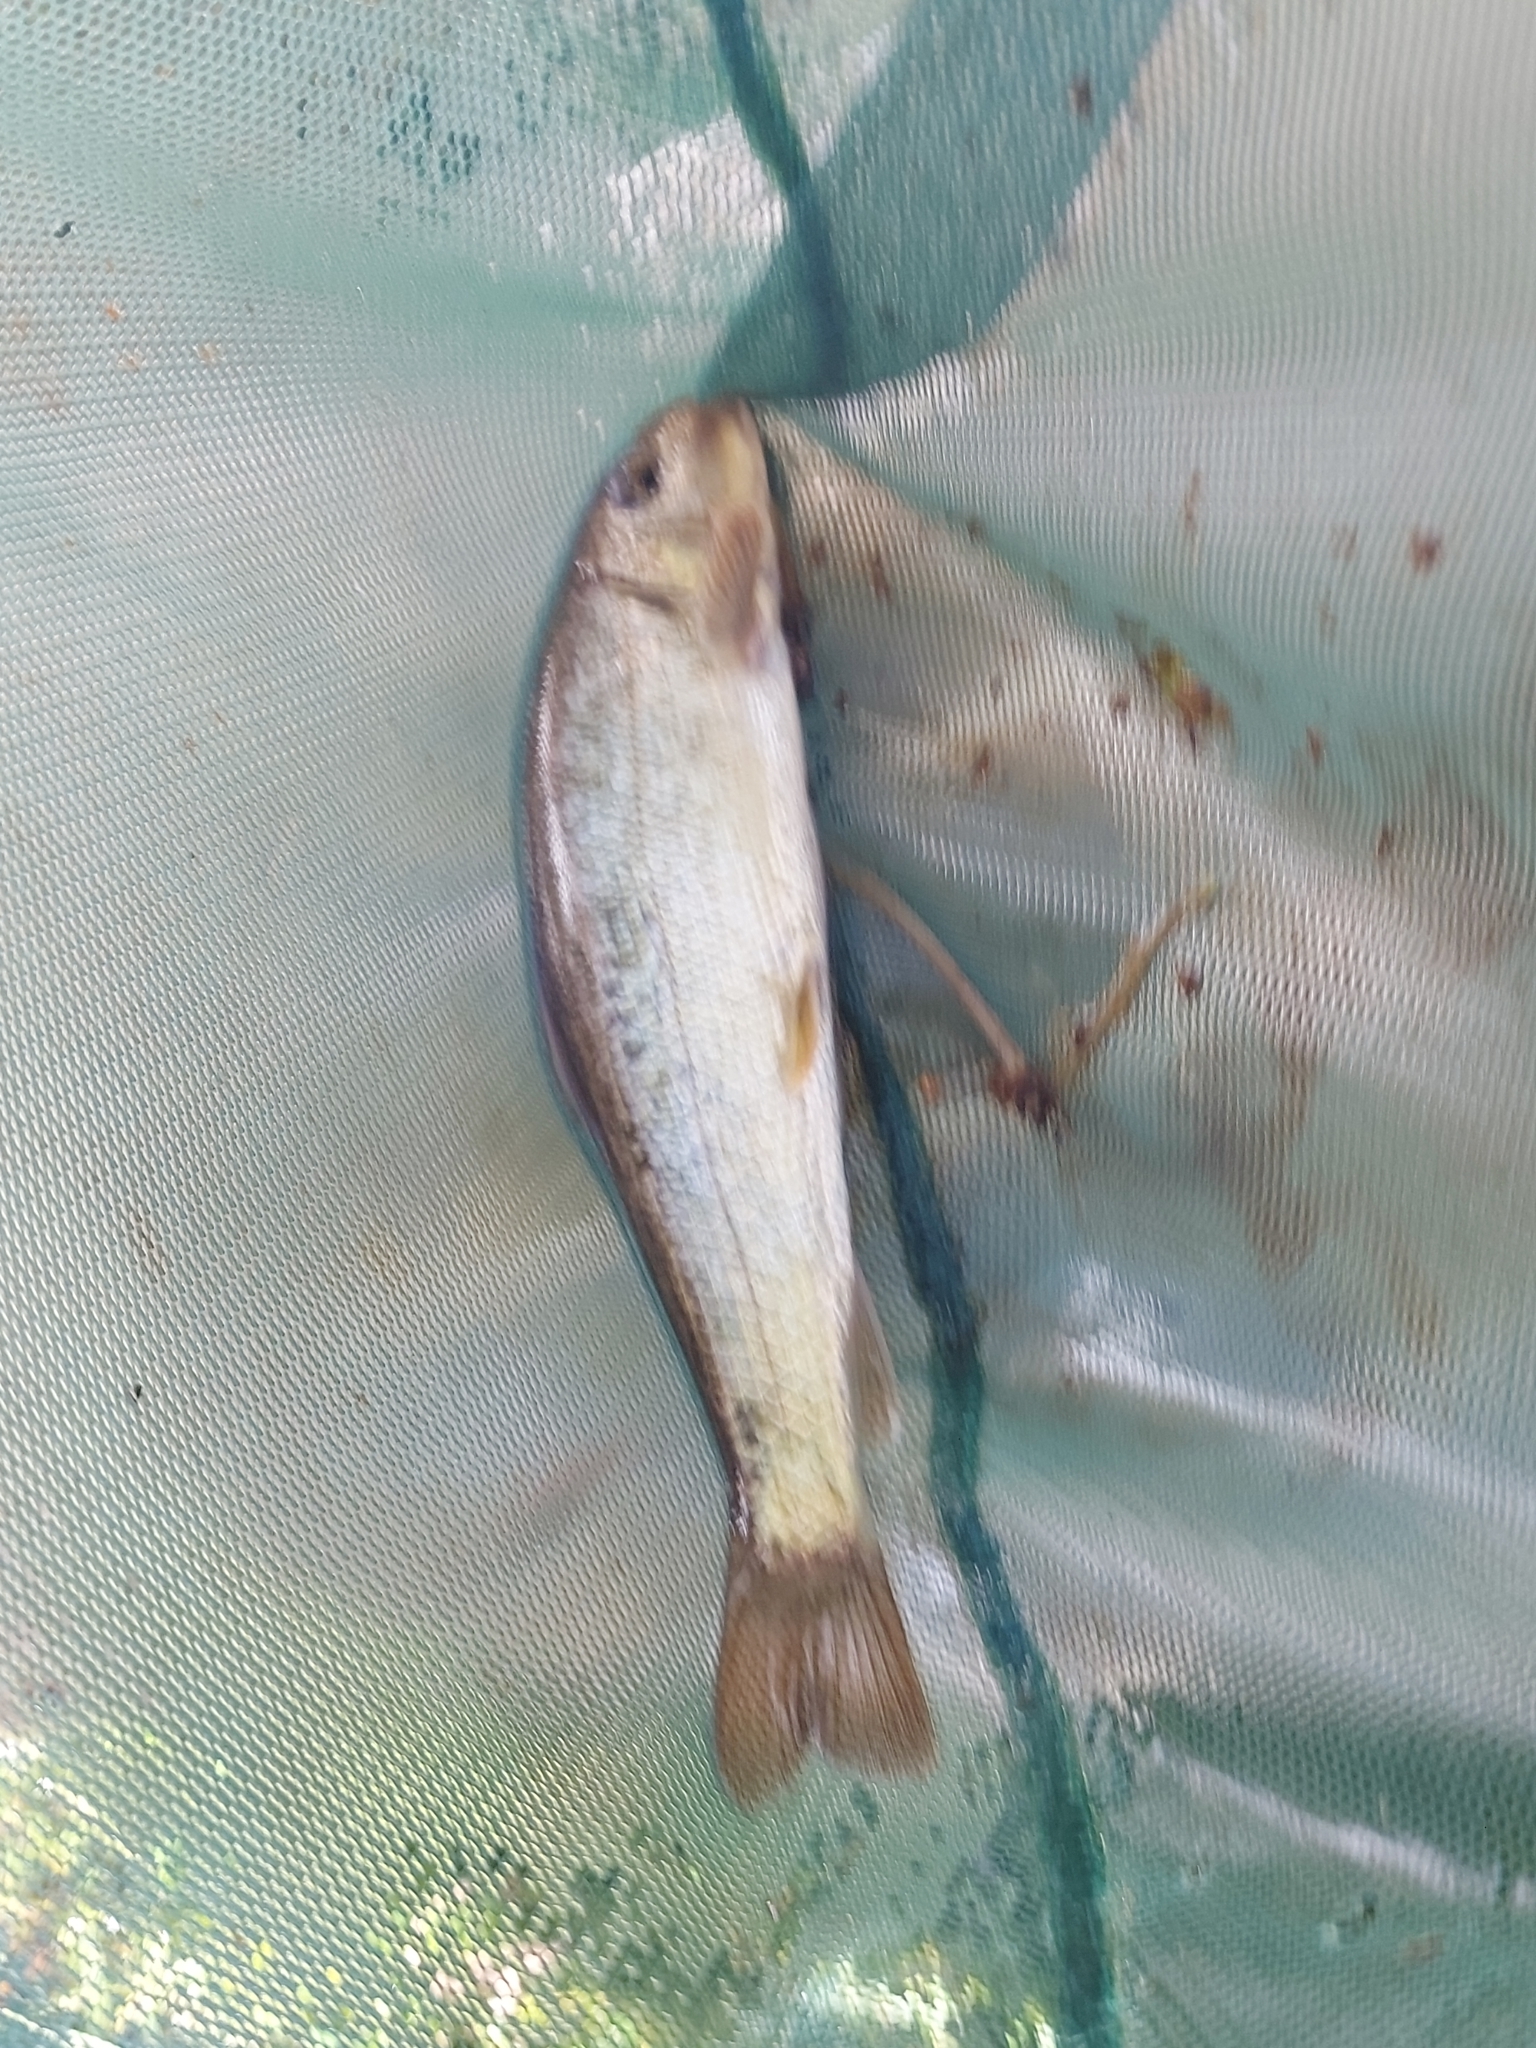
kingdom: Animalia
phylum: Chordata
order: Cypriniformes
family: Catostomidae
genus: Catostomus
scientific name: Catostomus commersonii
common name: White sucker
